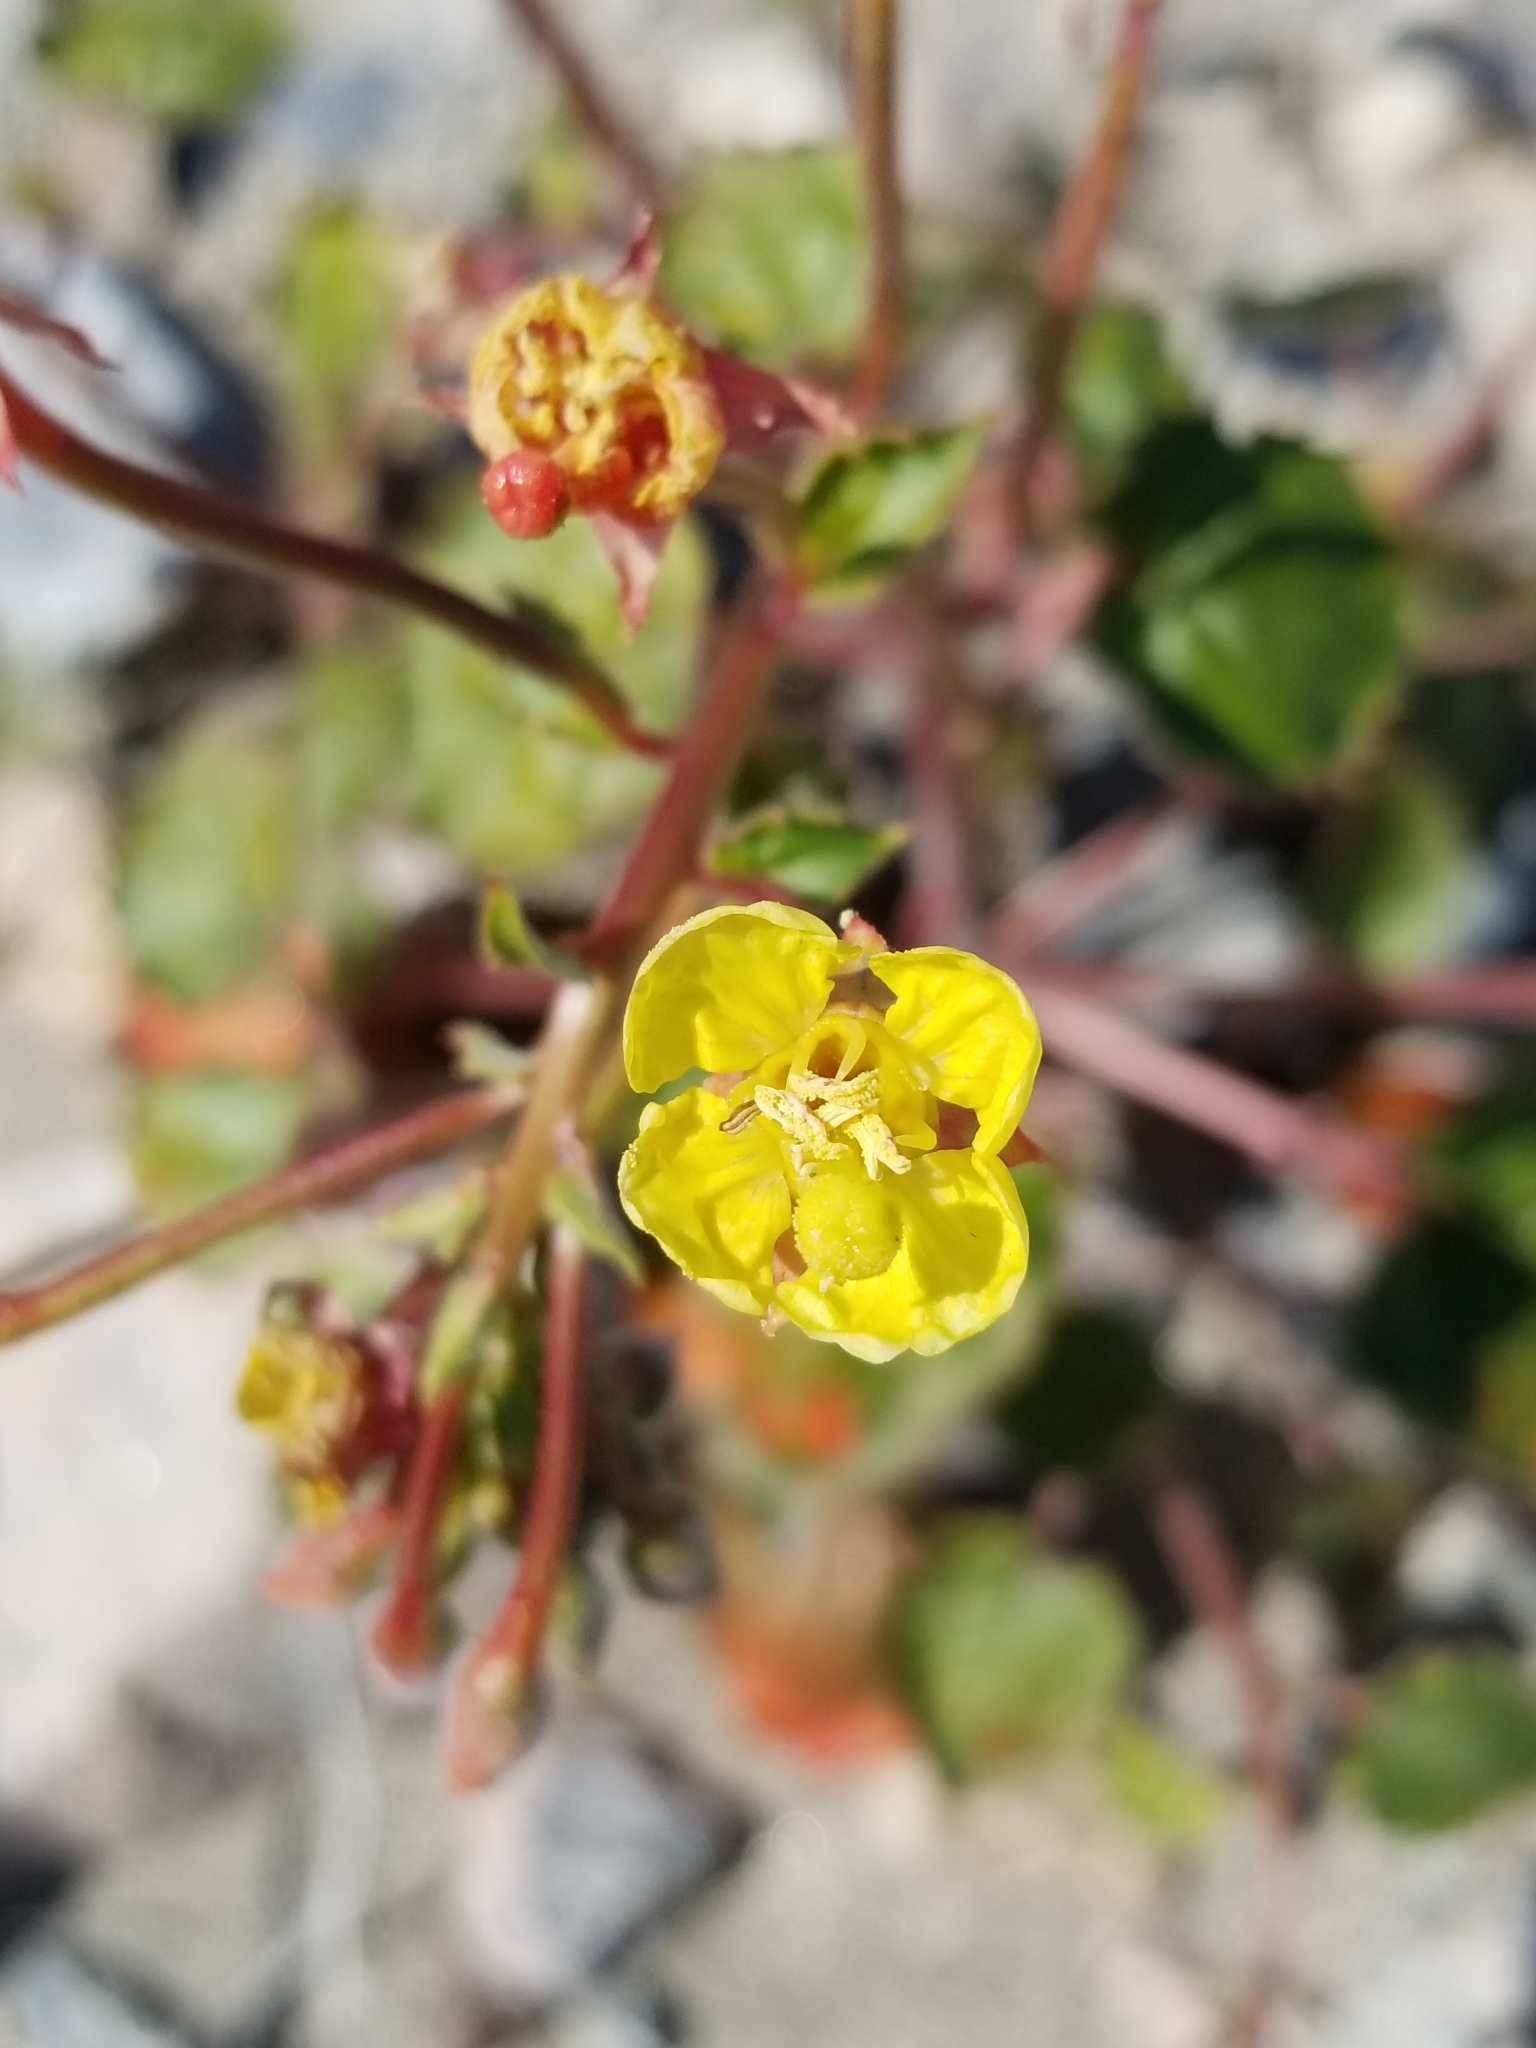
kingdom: Plantae
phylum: Tracheophyta
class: Magnoliopsida
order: Myrtales
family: Onagraceae
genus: Chylismia
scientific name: Chylismia cardiophylla
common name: Heartleaf suncup
